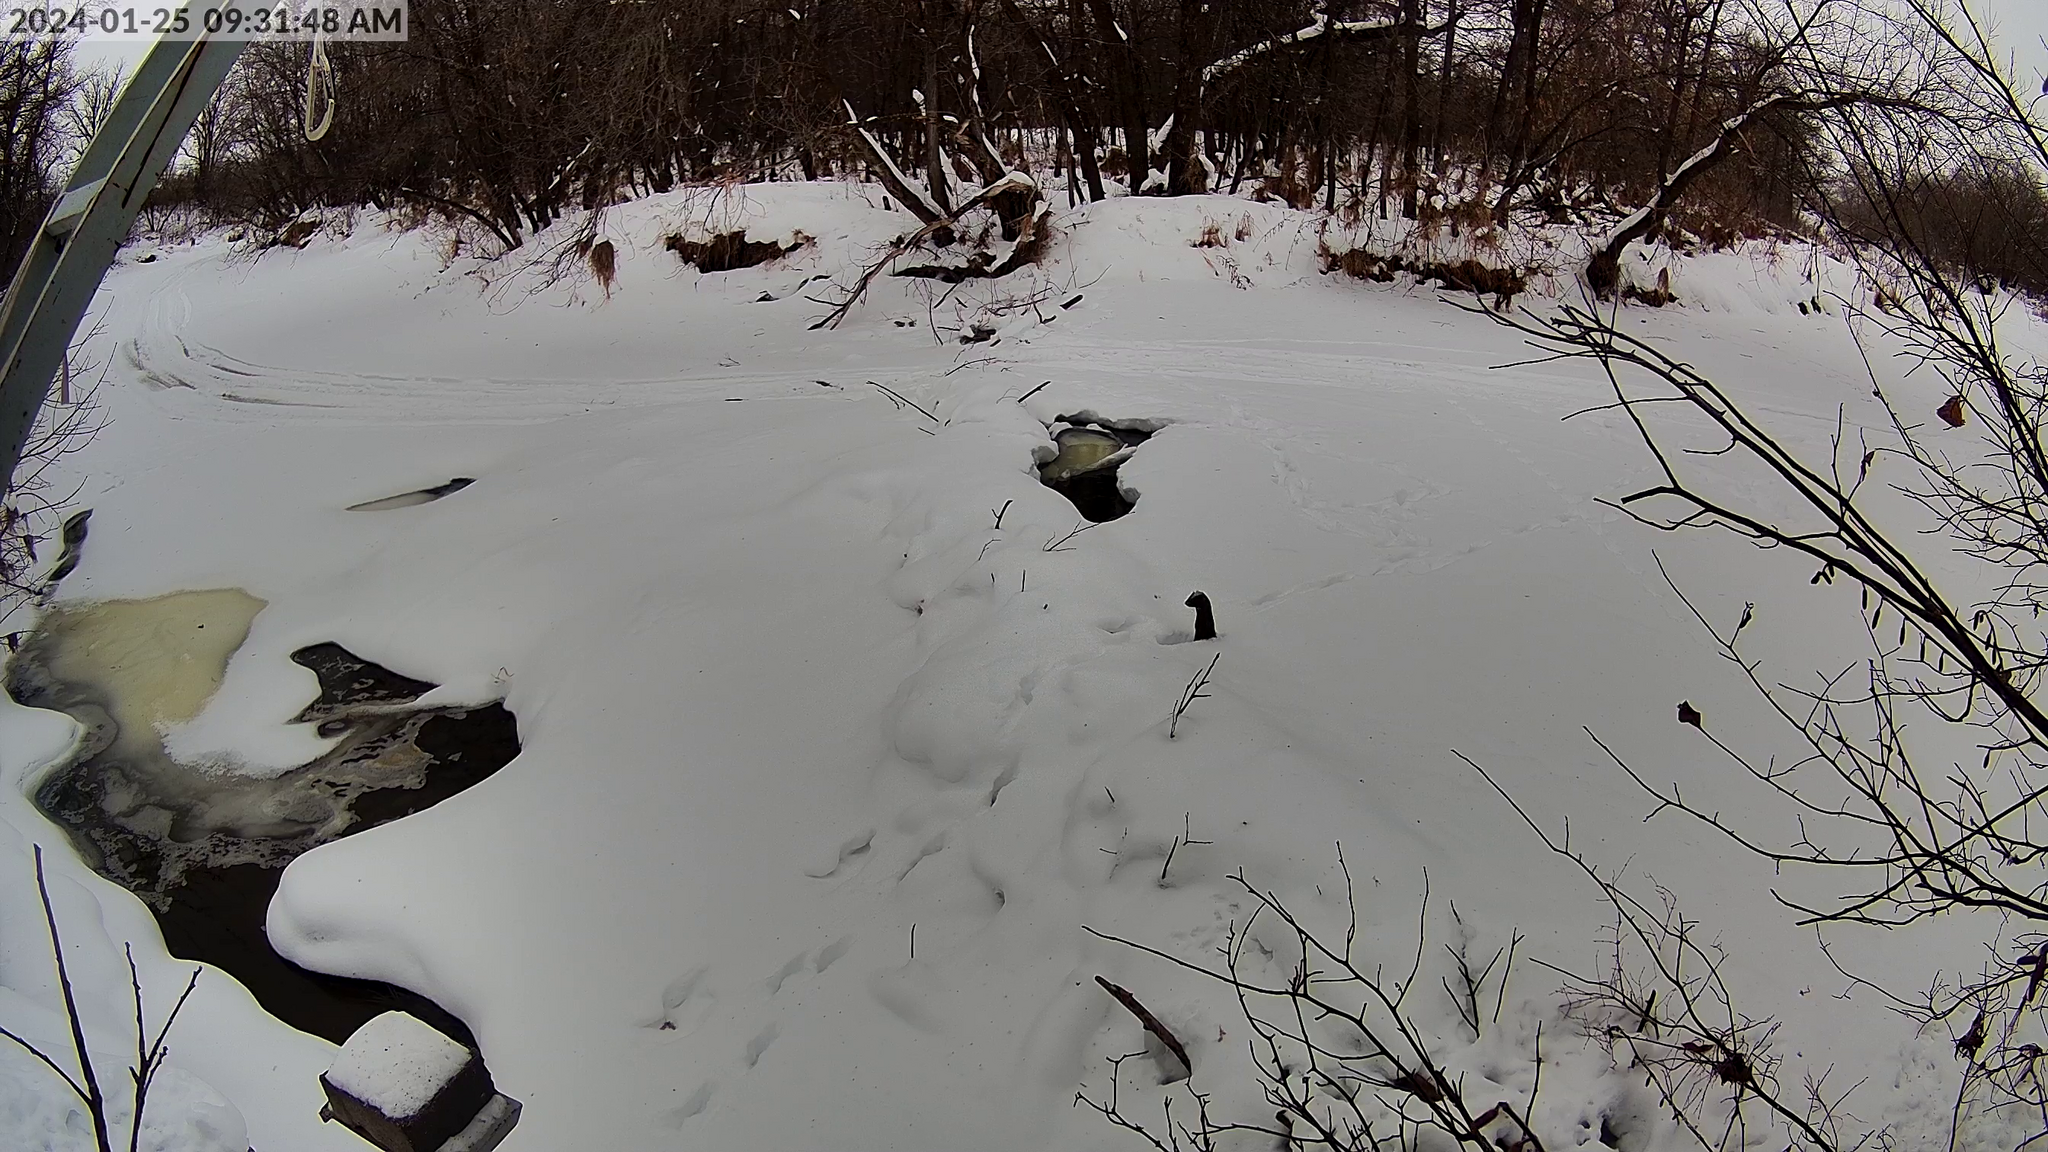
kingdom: Animalia
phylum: Chordata
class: Mammalia
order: Carnivora
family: Mustelidae
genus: Mustela
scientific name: Mustela
